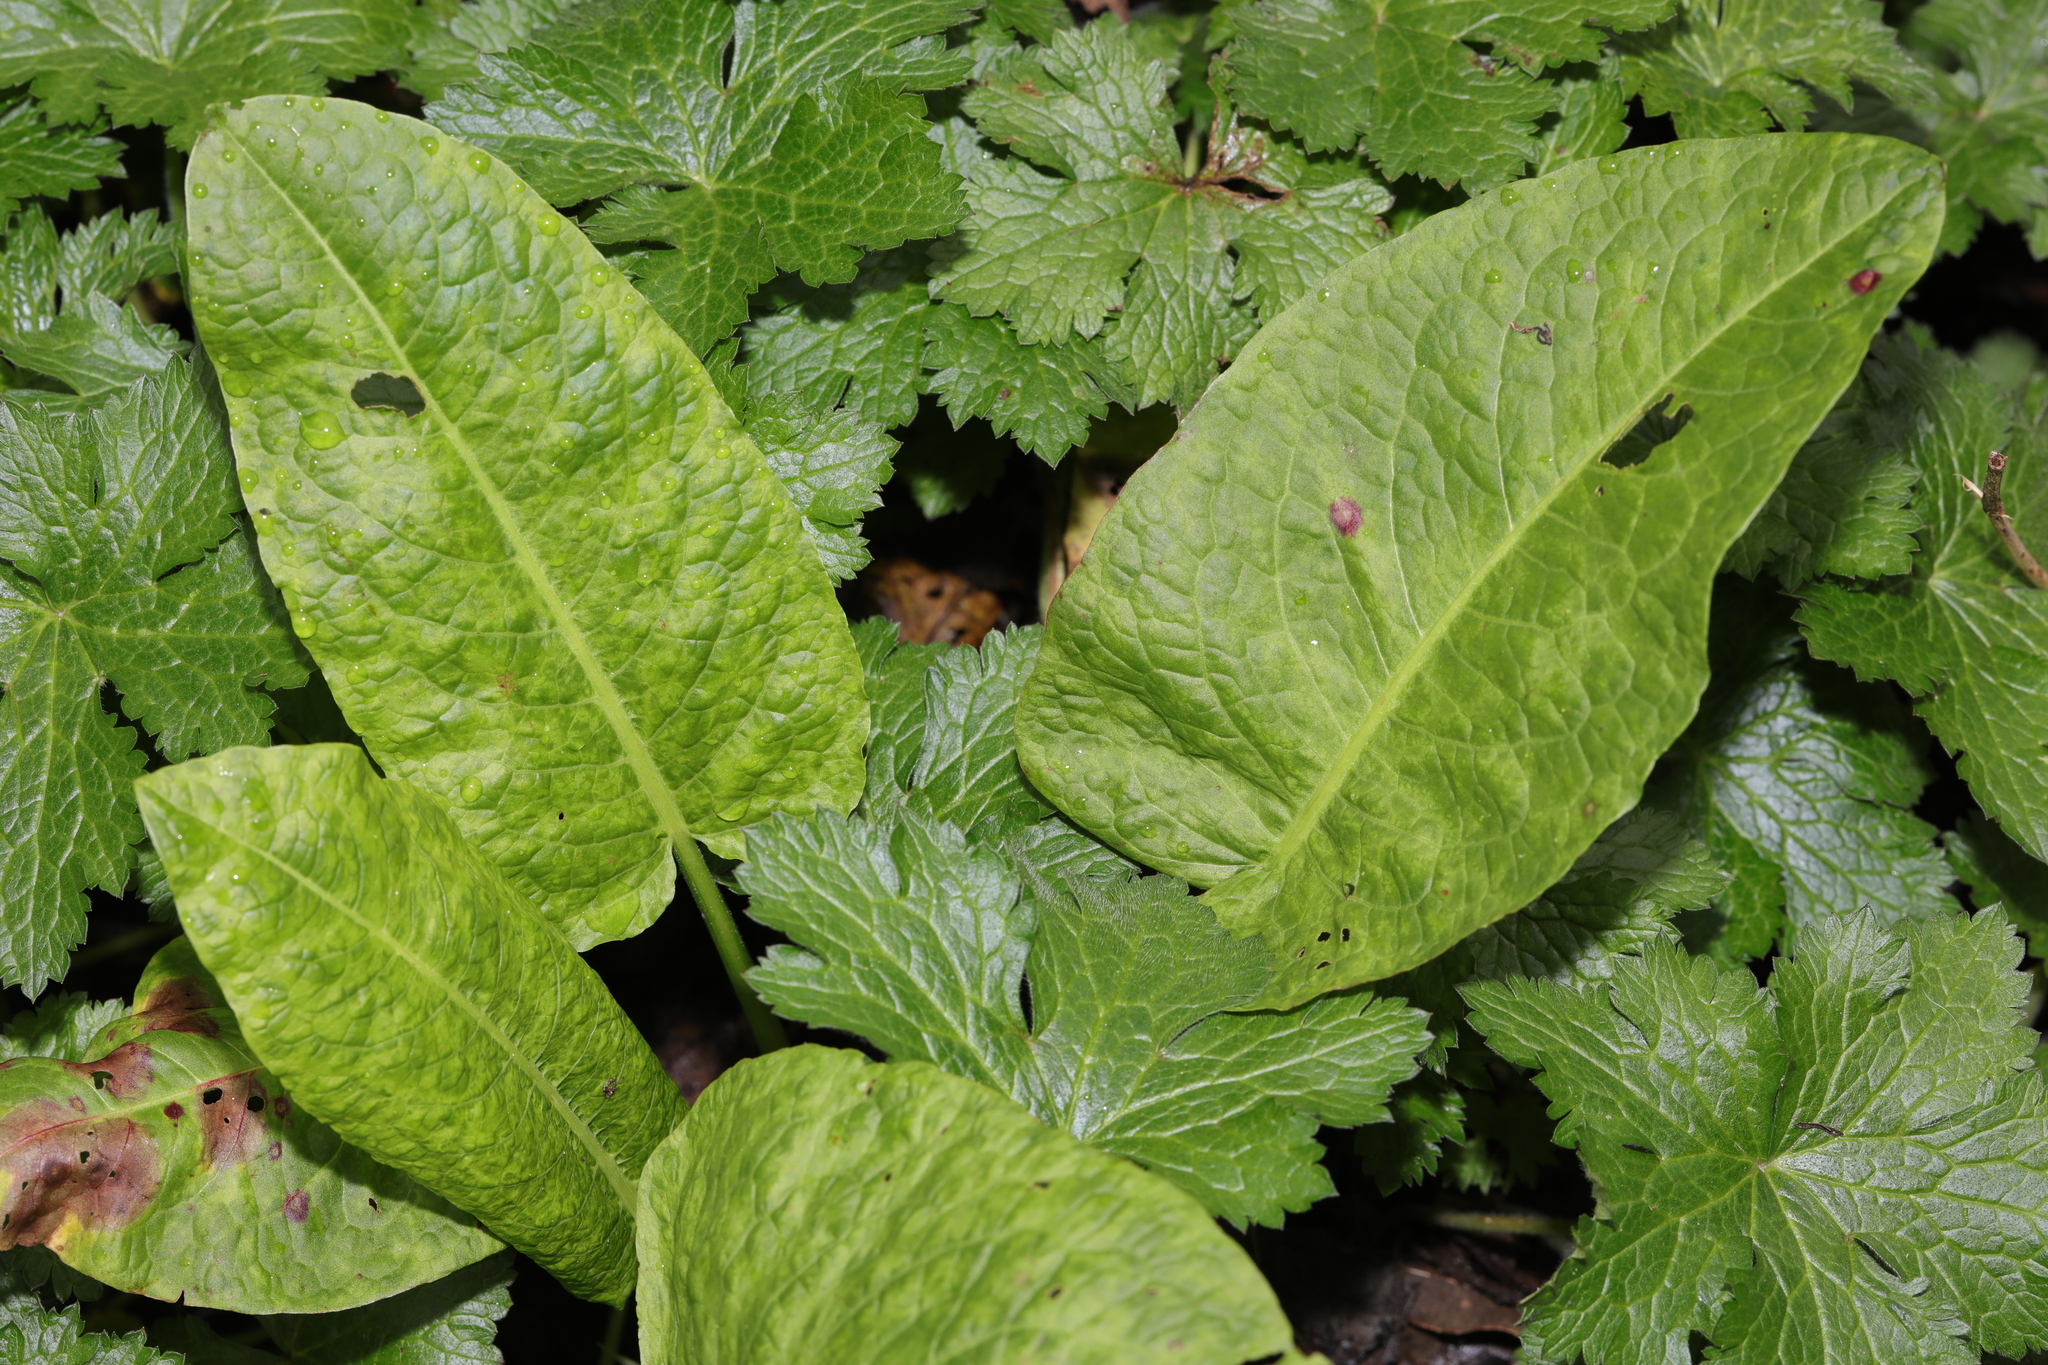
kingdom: Plantae
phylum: Tracheophyta
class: Magnoliopsida
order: Caryophyllales
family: Polygonaceae
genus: Rumex
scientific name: Rumex obtusifolius
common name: Bitter dock
